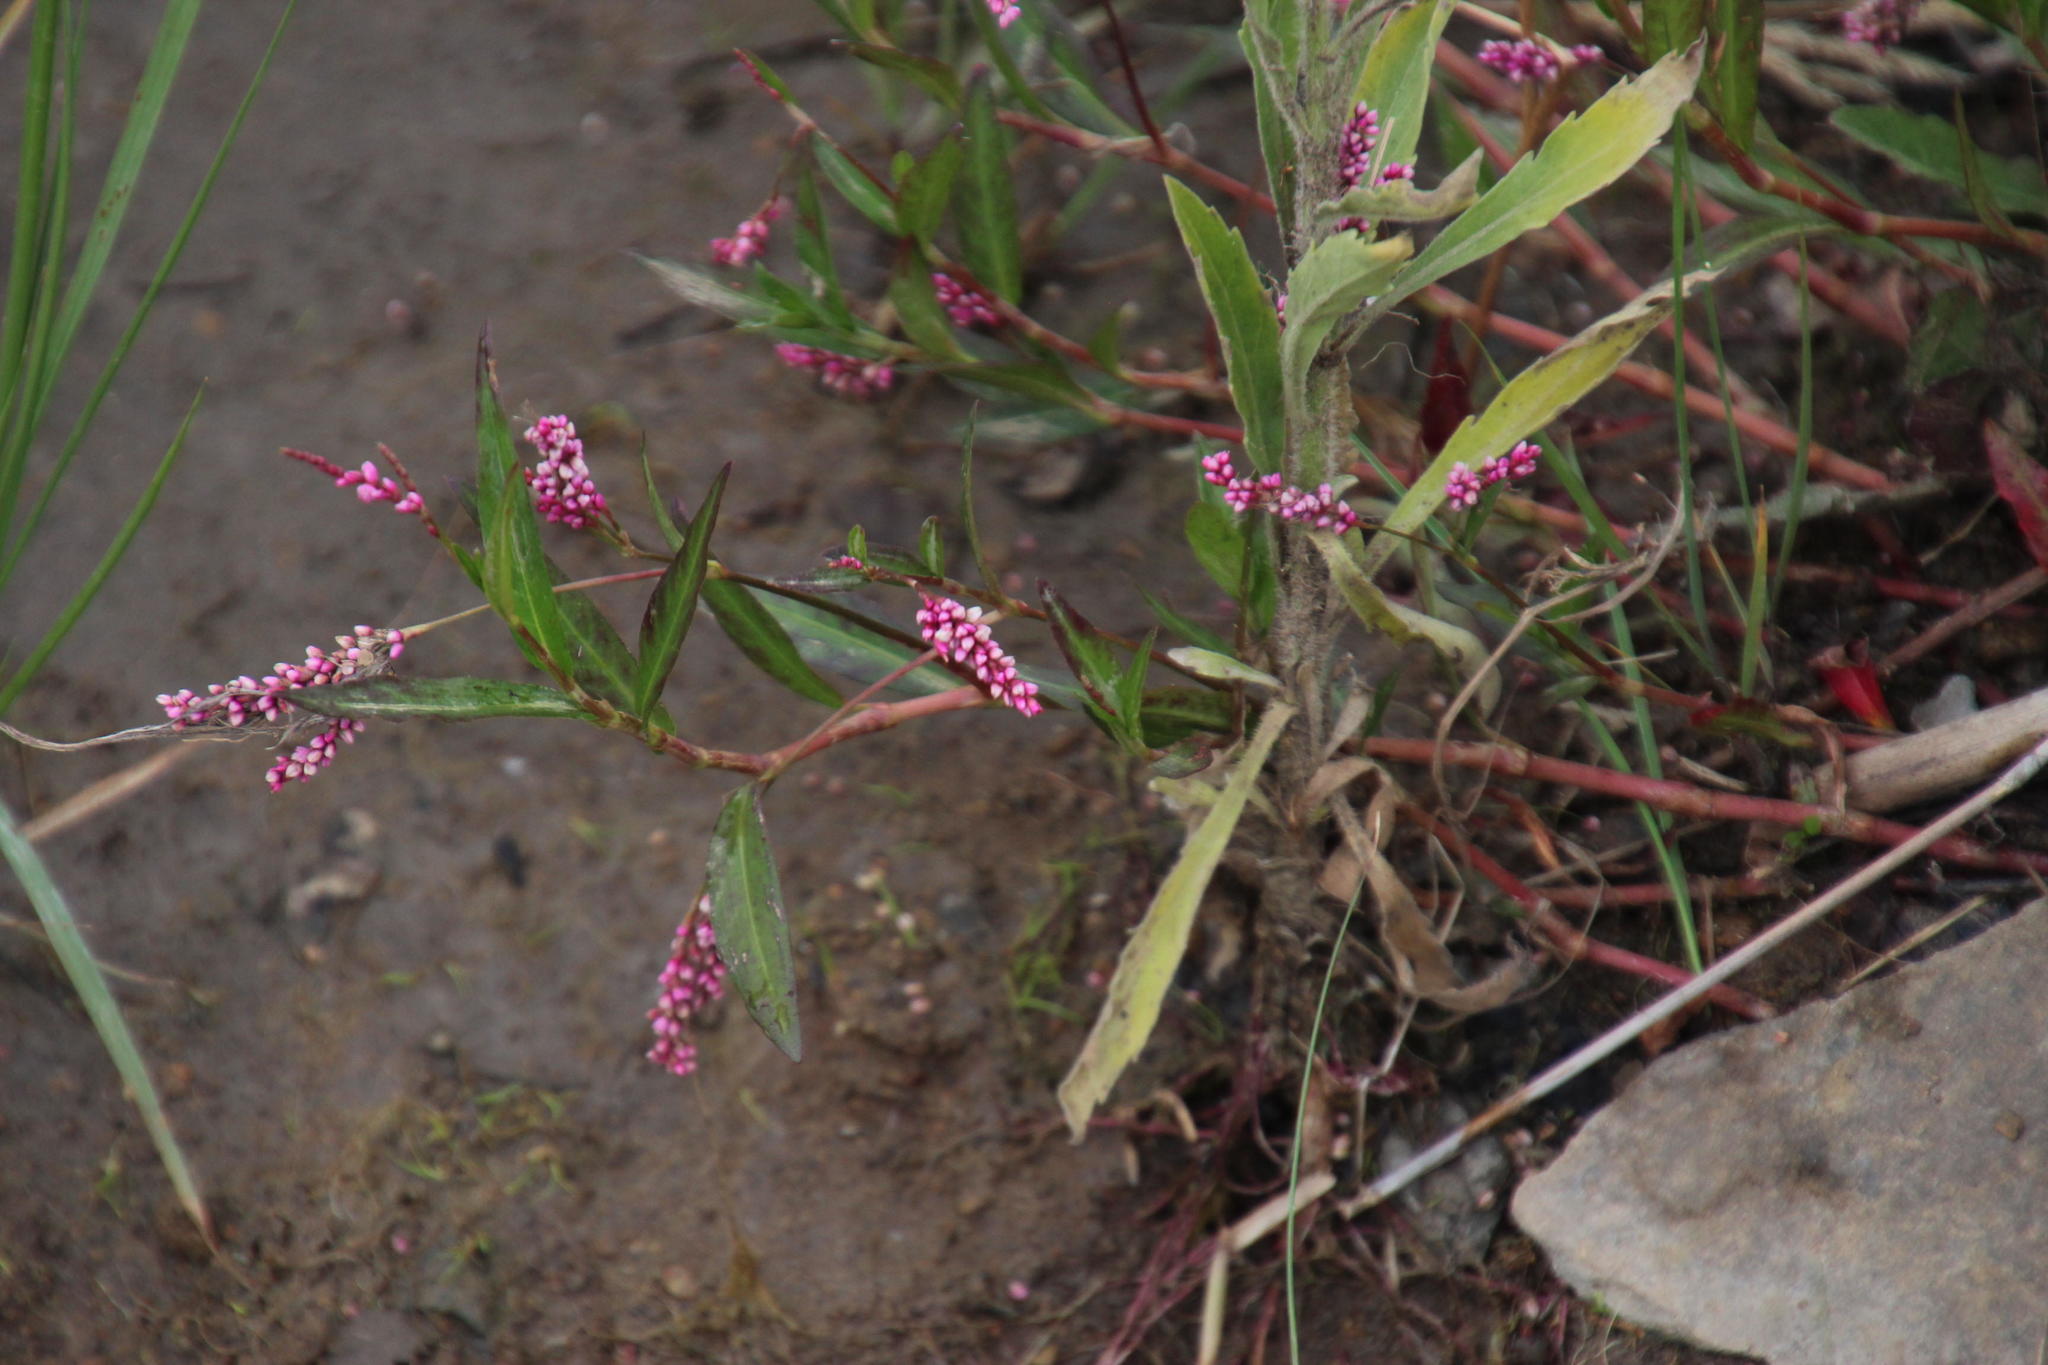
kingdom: Plantae
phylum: Tracheophyta
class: Magnoliopsida
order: Caryophyllales
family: Polygonaceae
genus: Persicaria
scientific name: Persicaria decipiens
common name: Willow-weed
